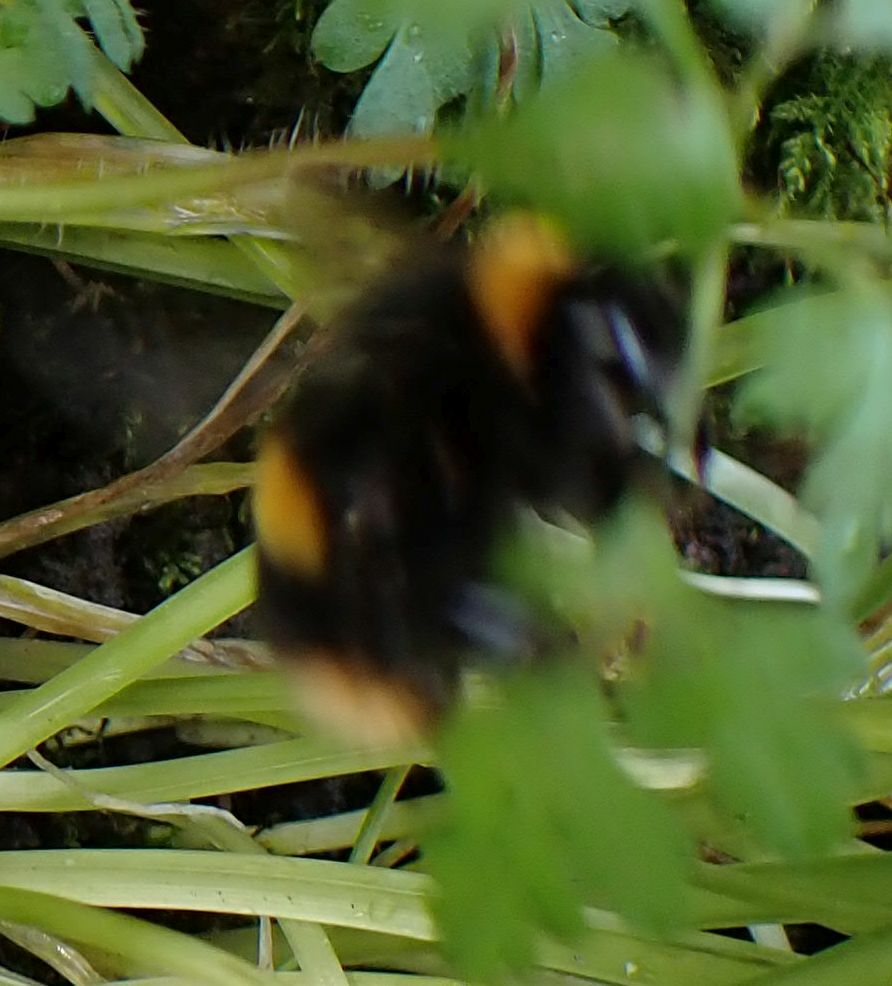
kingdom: Animalia
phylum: Arthropoda
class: Insecta
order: Hymenoptera
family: Apidae
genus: Bombus
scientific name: Bombus terrestris
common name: Buff-tailed bumblebee
